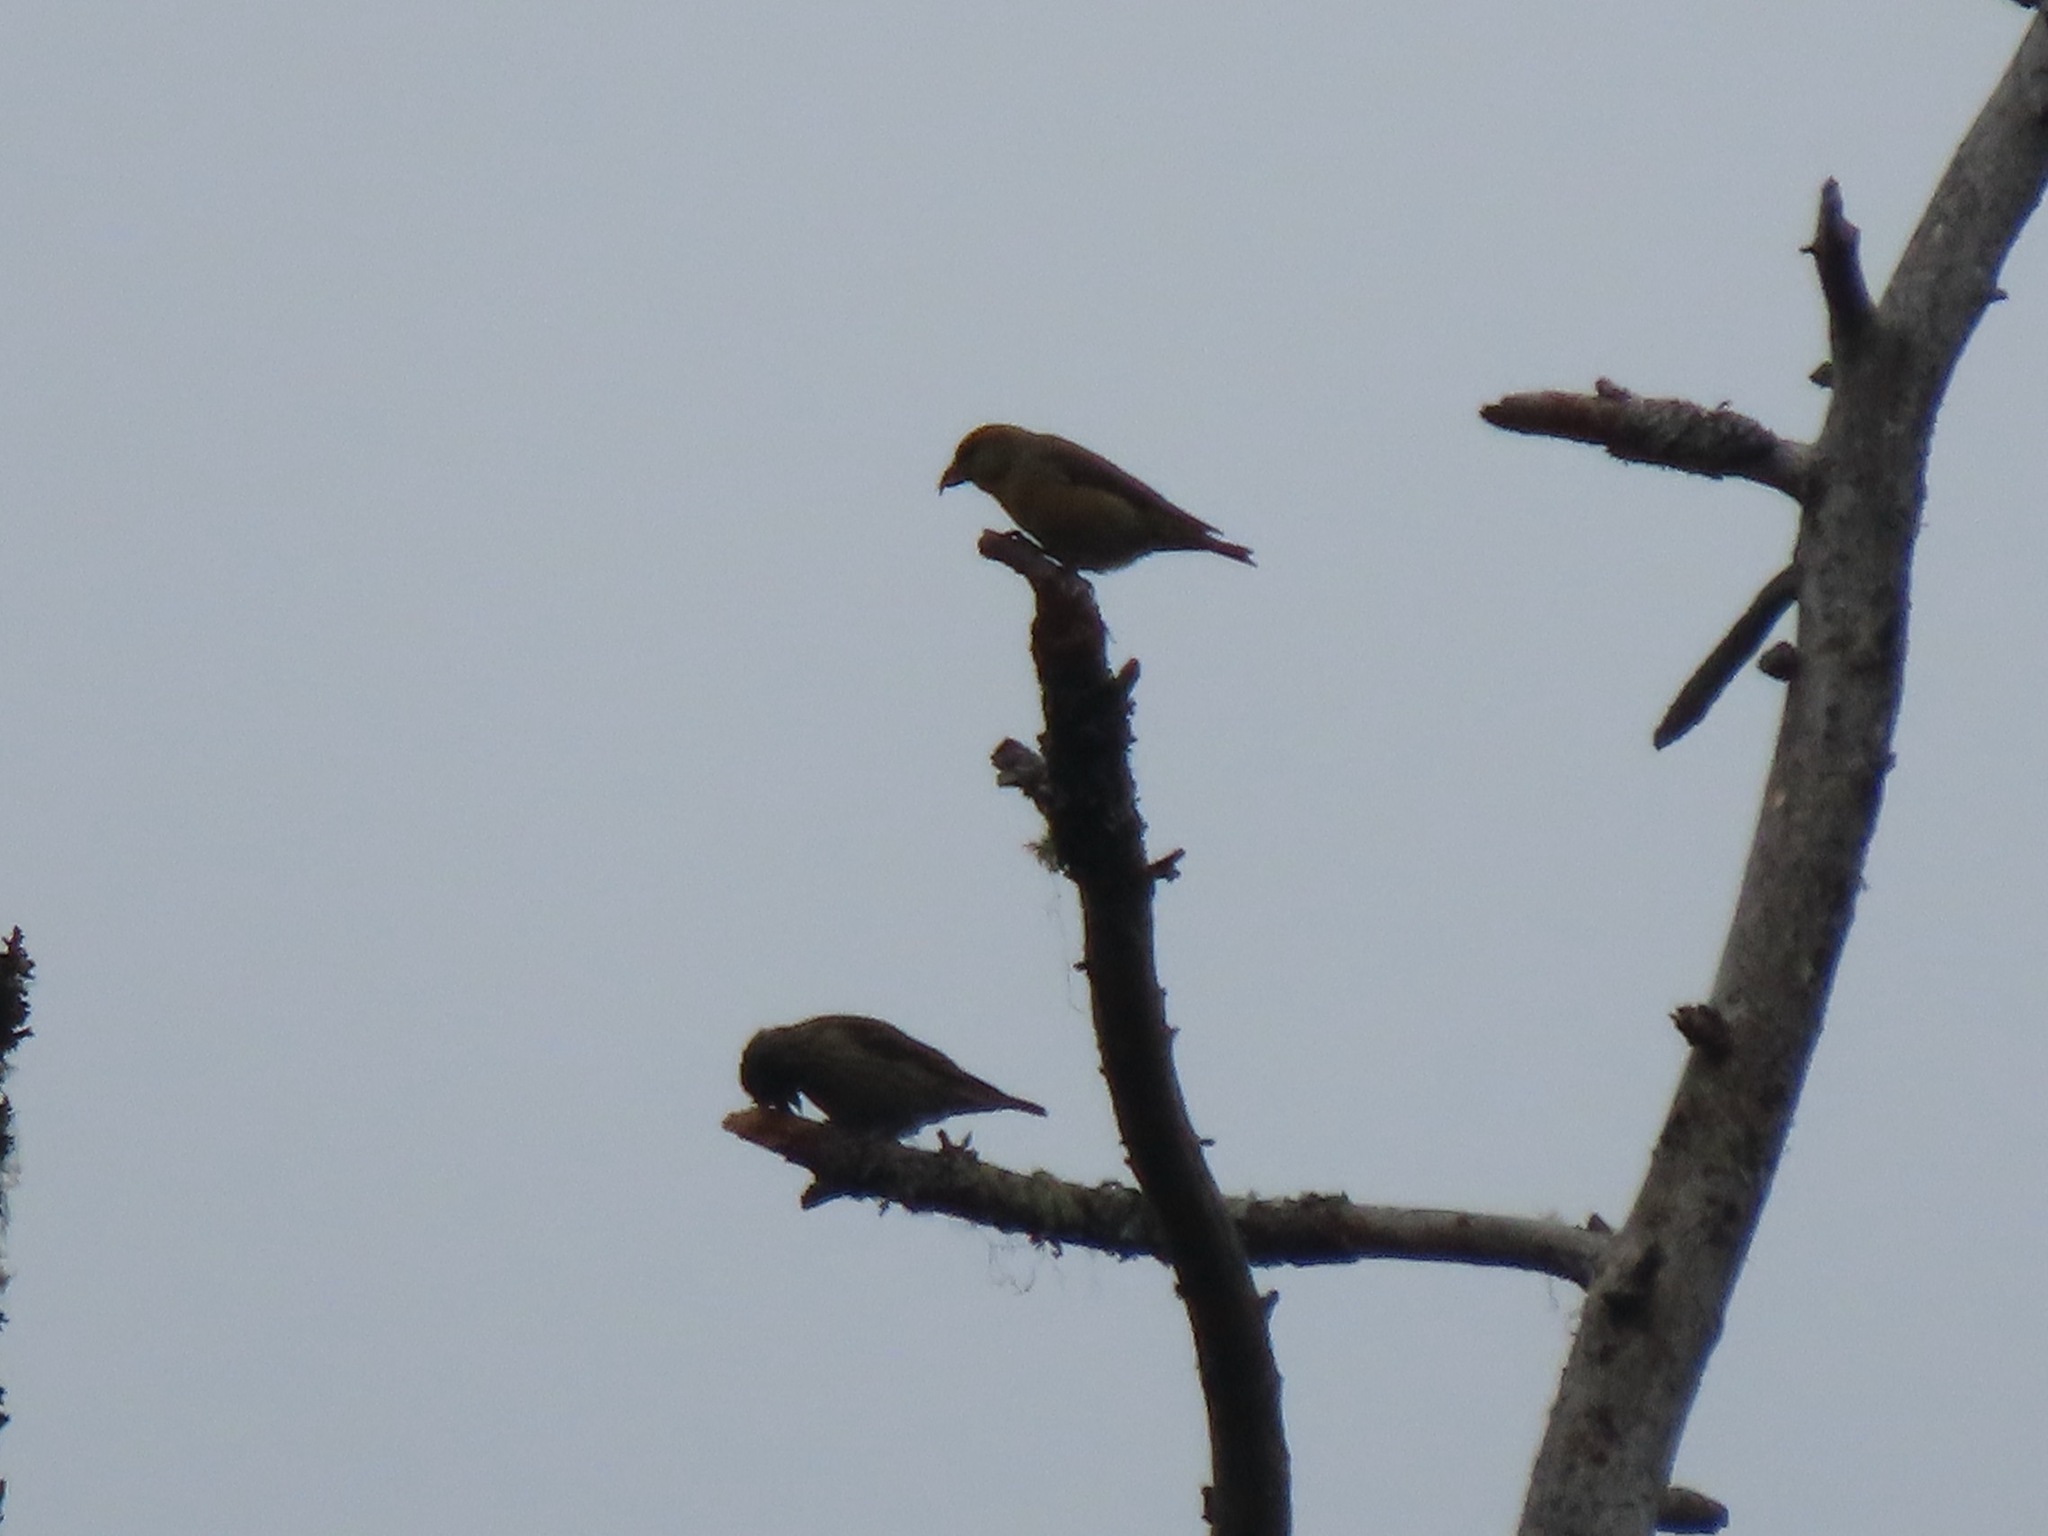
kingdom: Animalia
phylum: Chordata
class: Aves
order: Passeriformes
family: Fringillidae
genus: Loxia
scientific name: Loxia curvirostra
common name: Red crossbill
